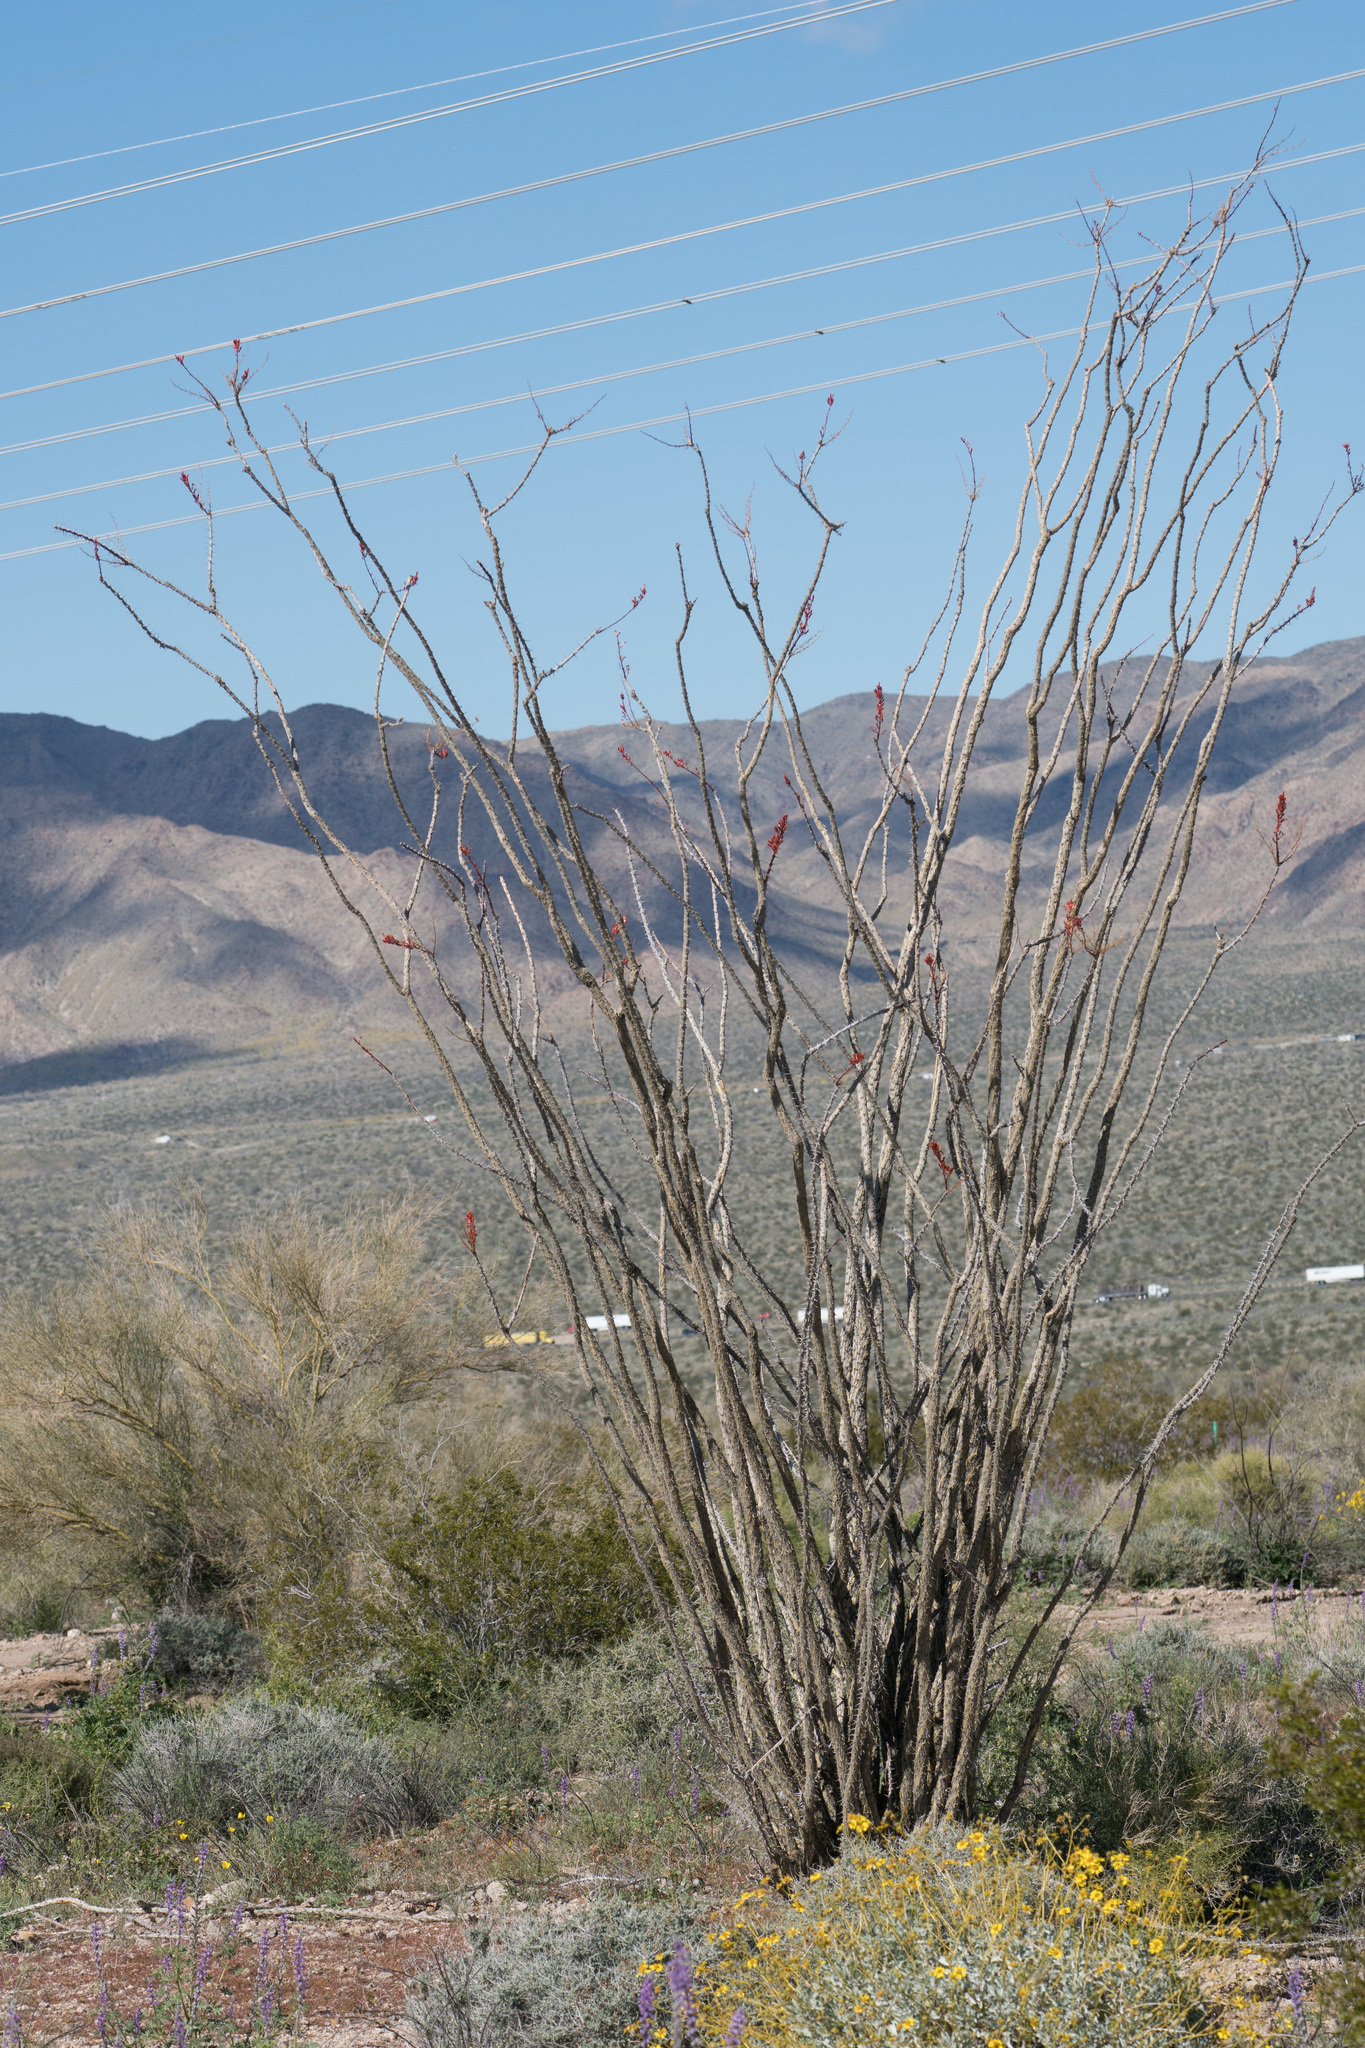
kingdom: Plantae
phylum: Tracheophyta
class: Magnoliopsida
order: Ericales
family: Fouquieriaceae
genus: Fouquieria
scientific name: Fouquieria splendens
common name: Vine-cactus
